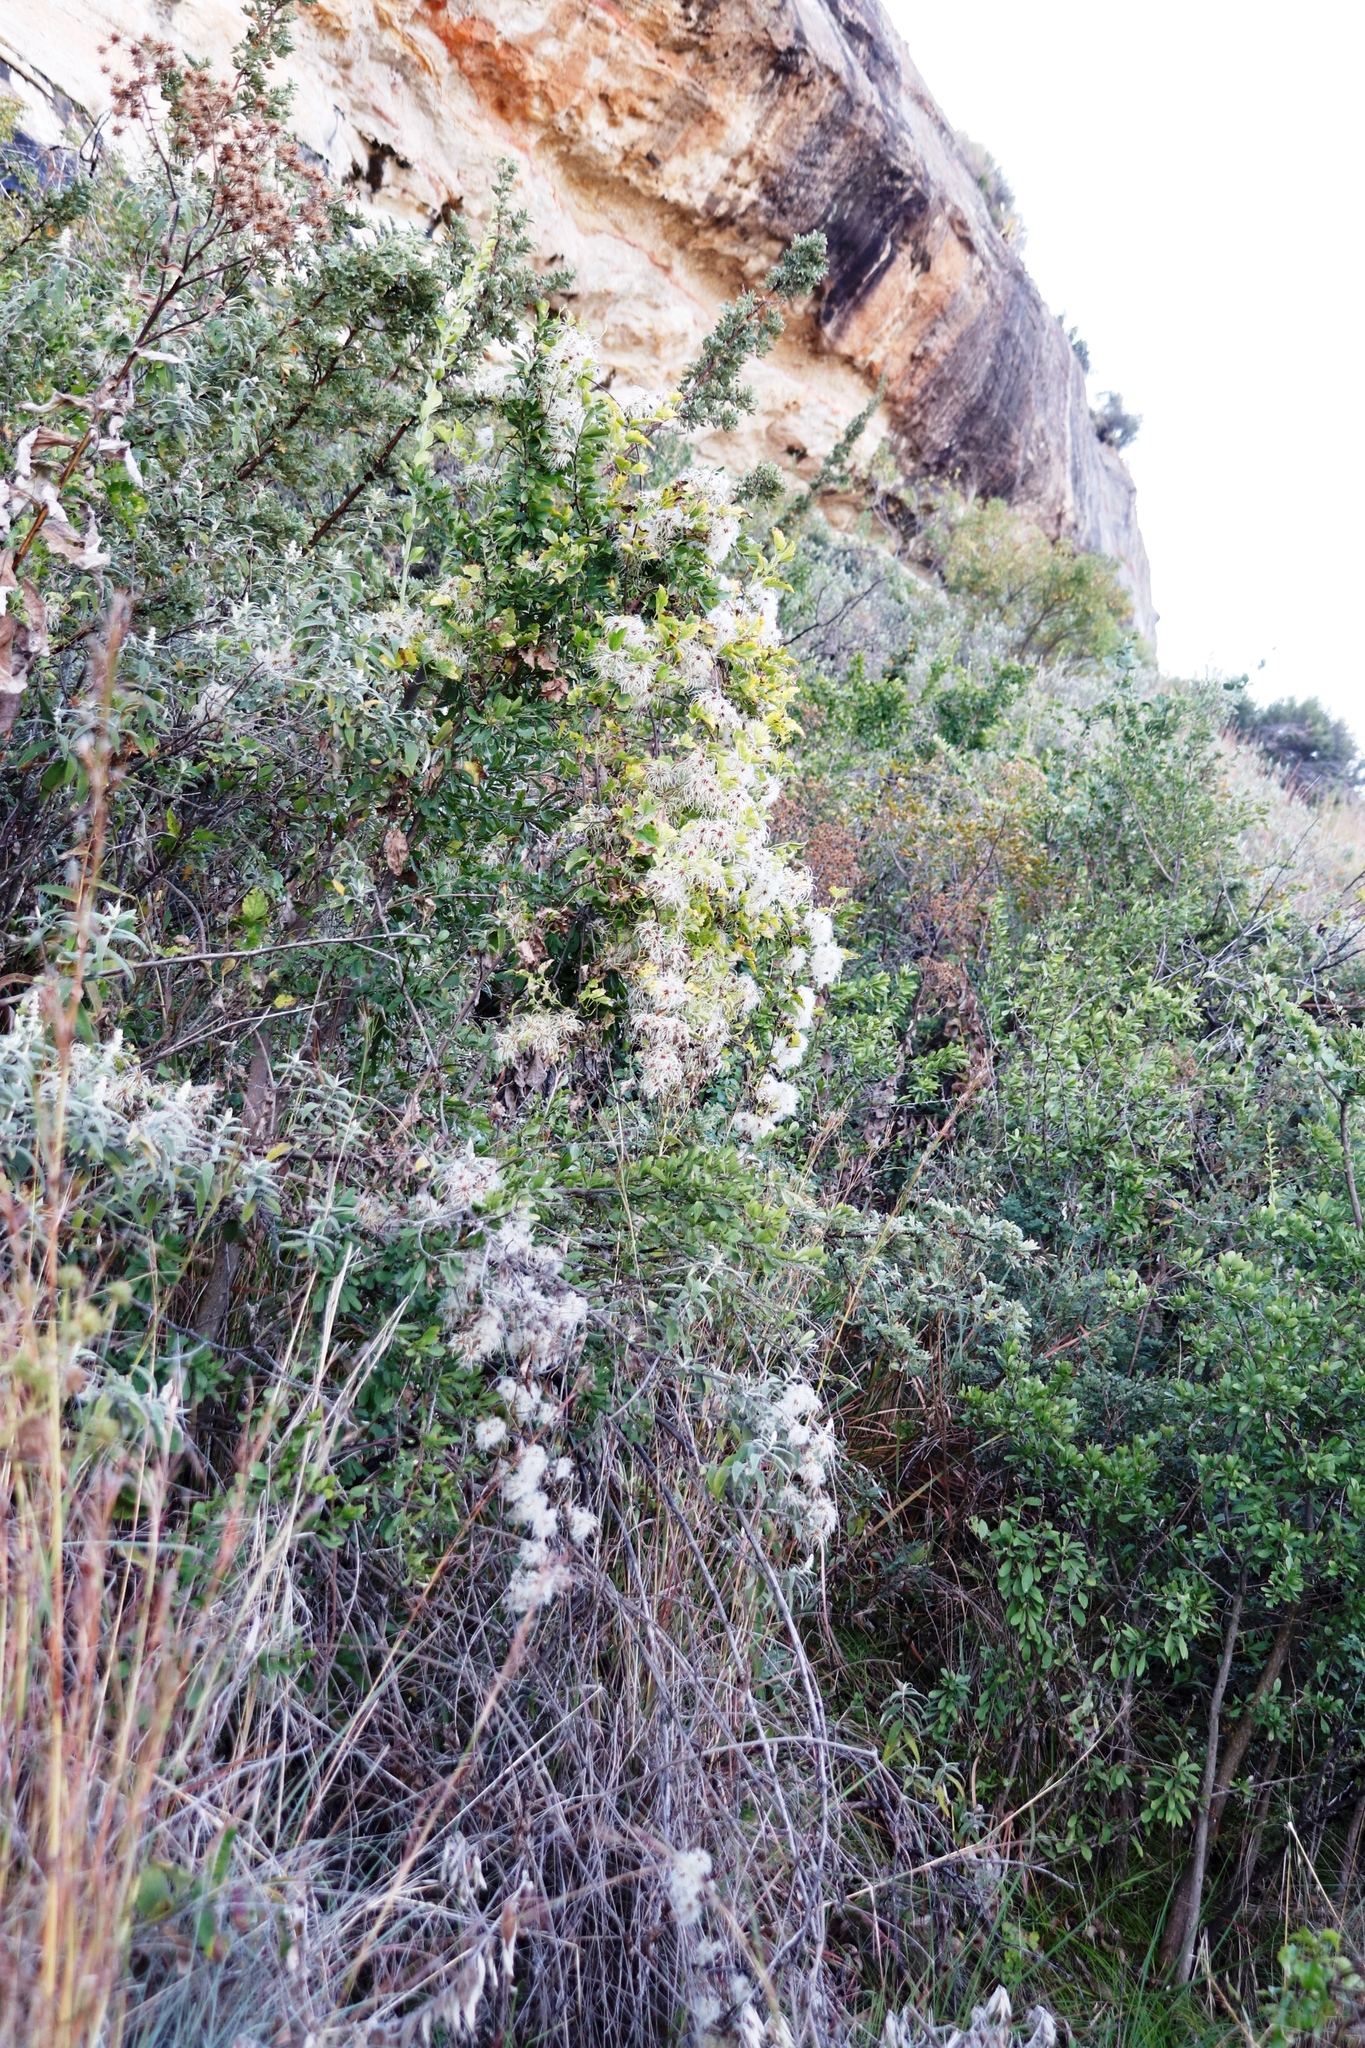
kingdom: Plantae
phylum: Tracheophyta
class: Magnoliopsida
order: Ranunculales
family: Ranunculaceae
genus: Clematis
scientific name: Clematis brachiata
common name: Traveler's-joy
